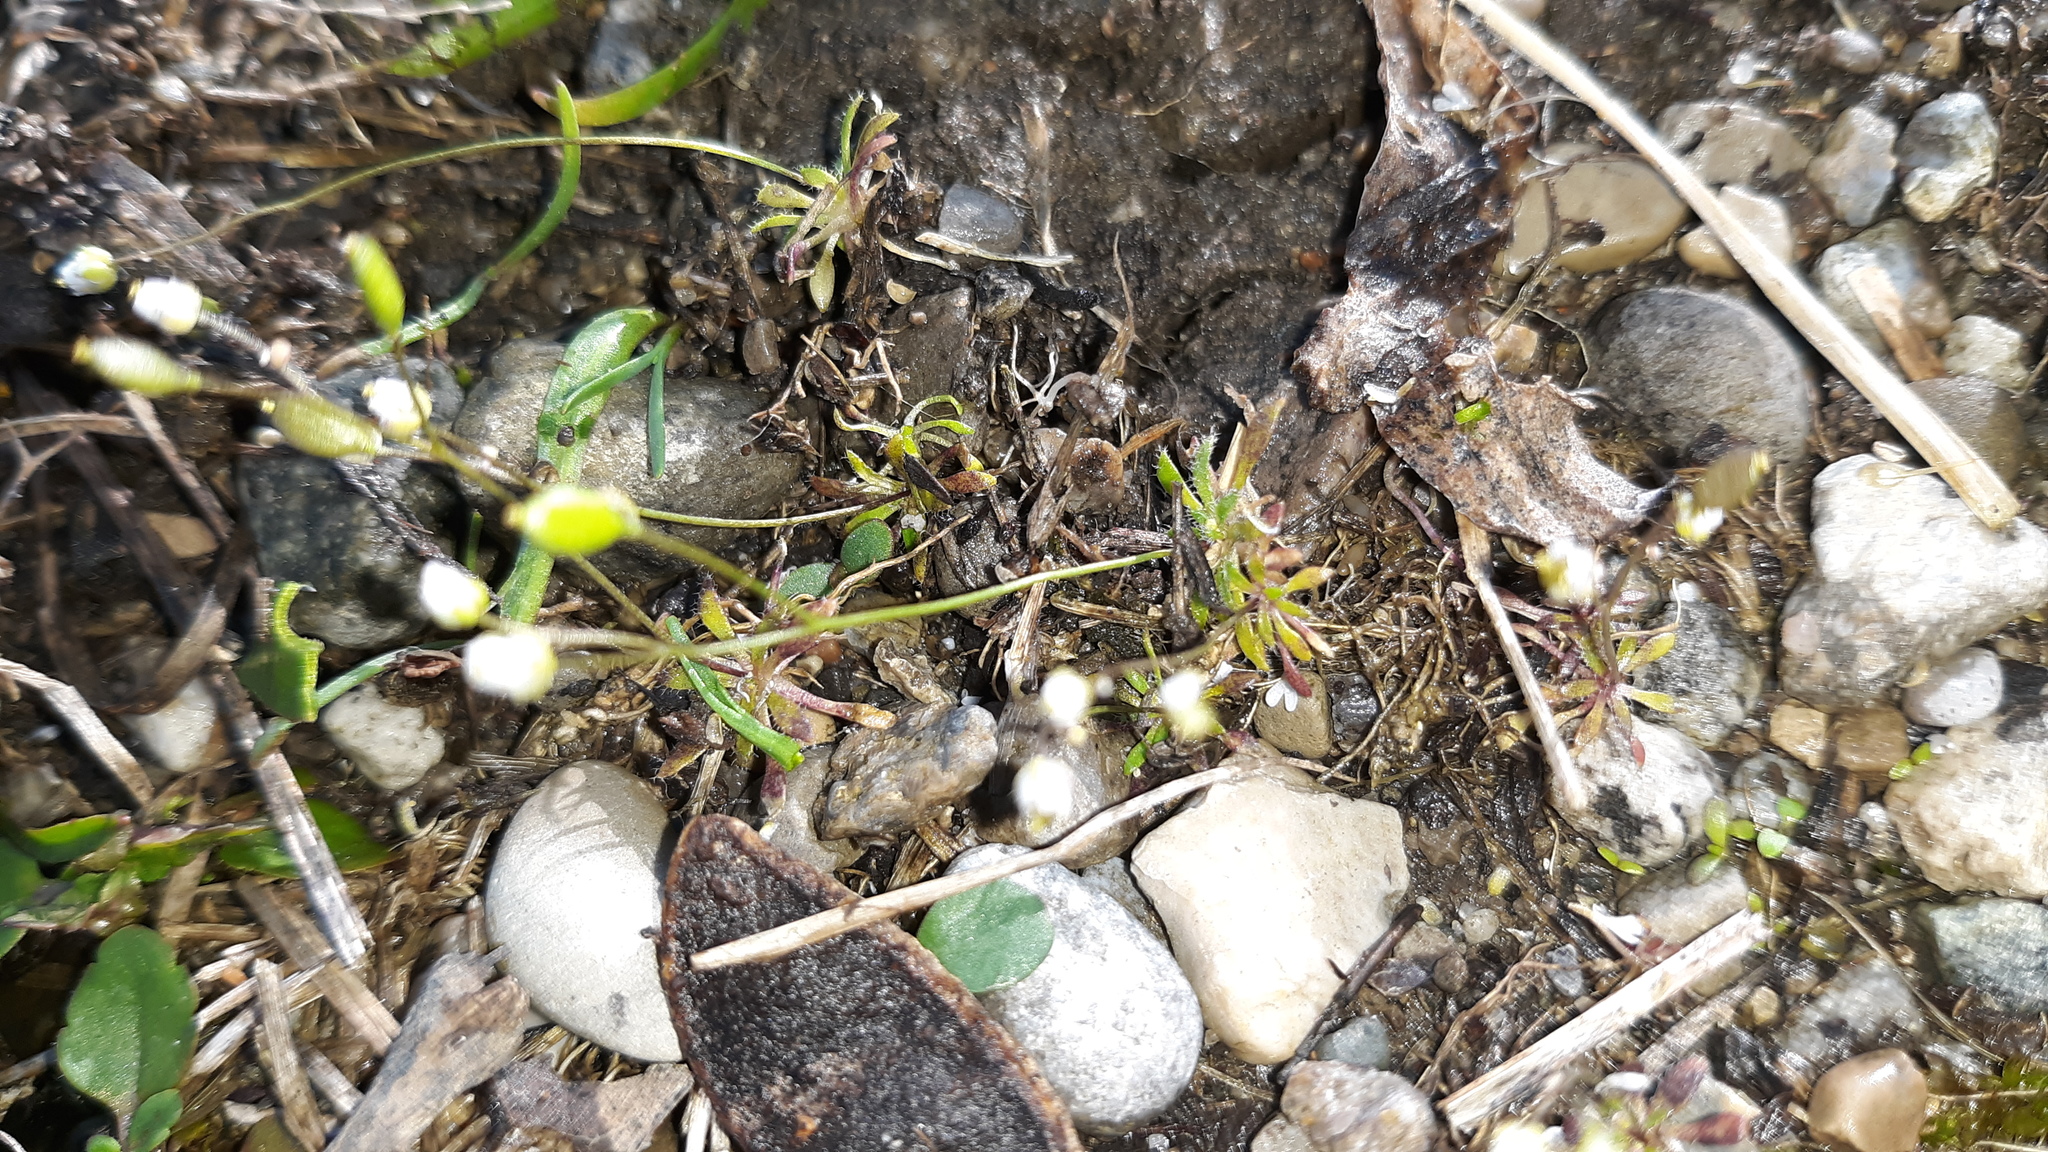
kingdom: Plantae
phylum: Tracheophyta
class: Magnoliopsida
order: Brassicales
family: Brassicaceae
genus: Draba
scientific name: Draba verna
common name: Spring draba
